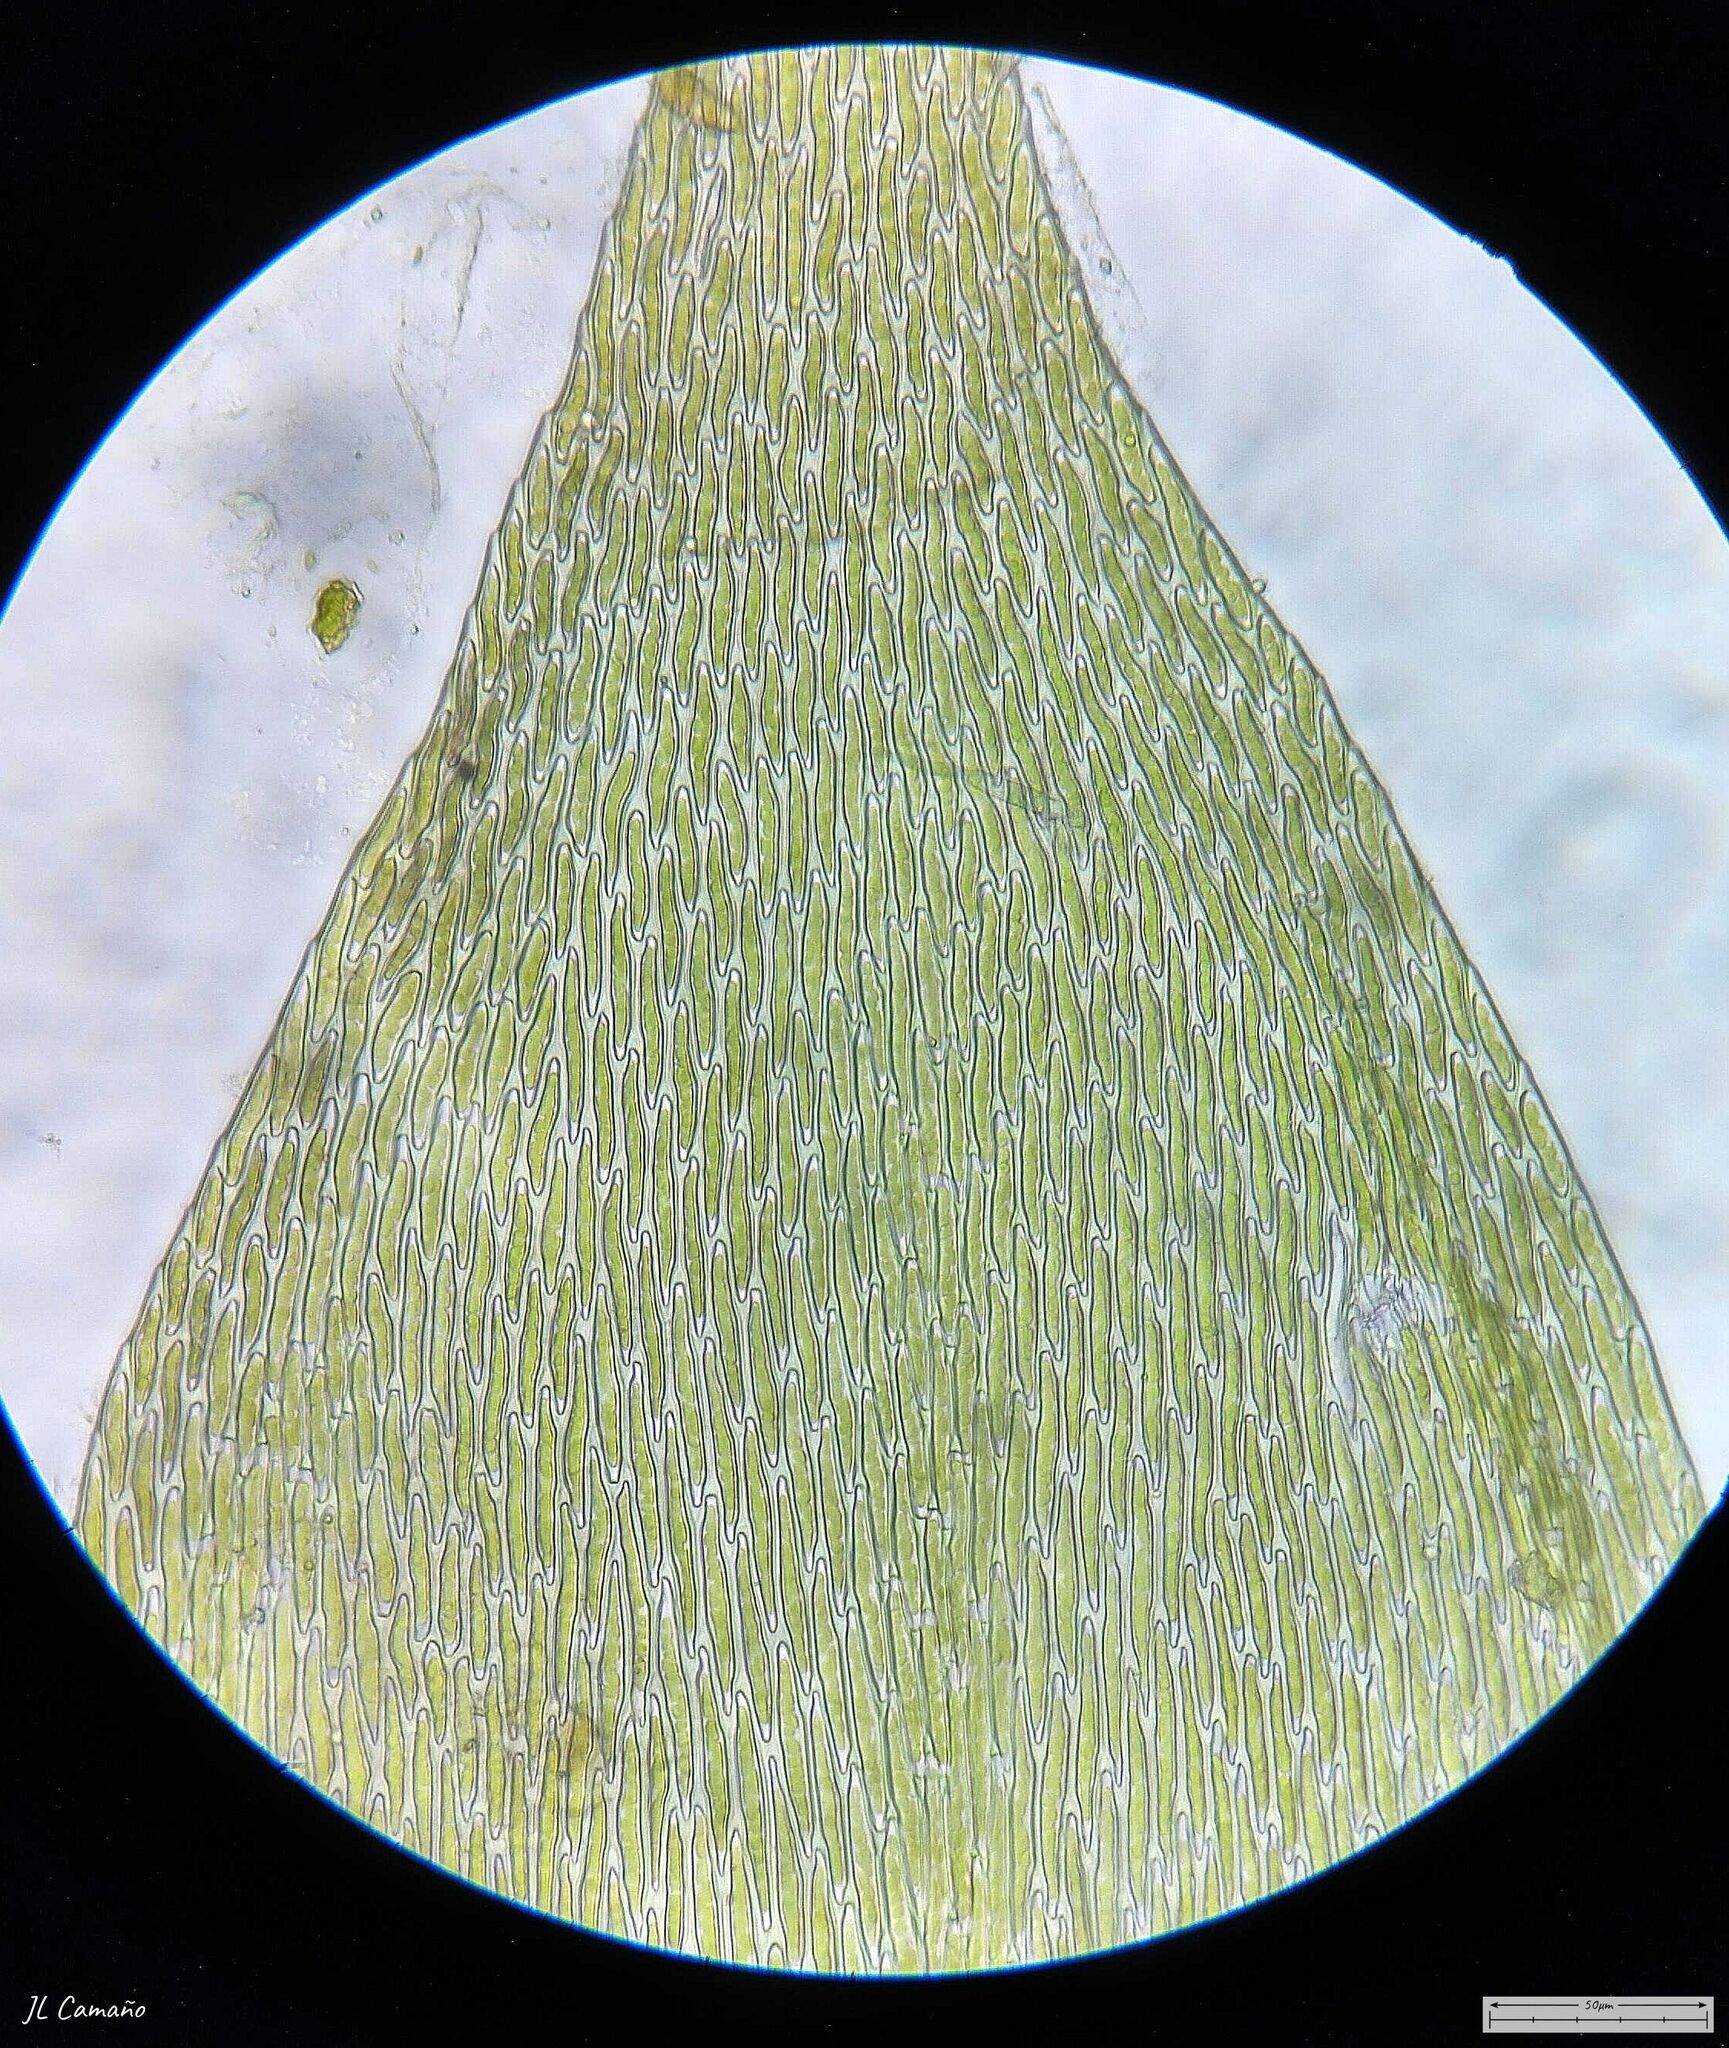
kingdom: Plantae
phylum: Bryophyta
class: Bryopsida
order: Hypnales
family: Sematophyllaceae
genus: Sematophyllum
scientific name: Sematophyllum substrumulosum
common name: Bark signal-moss
